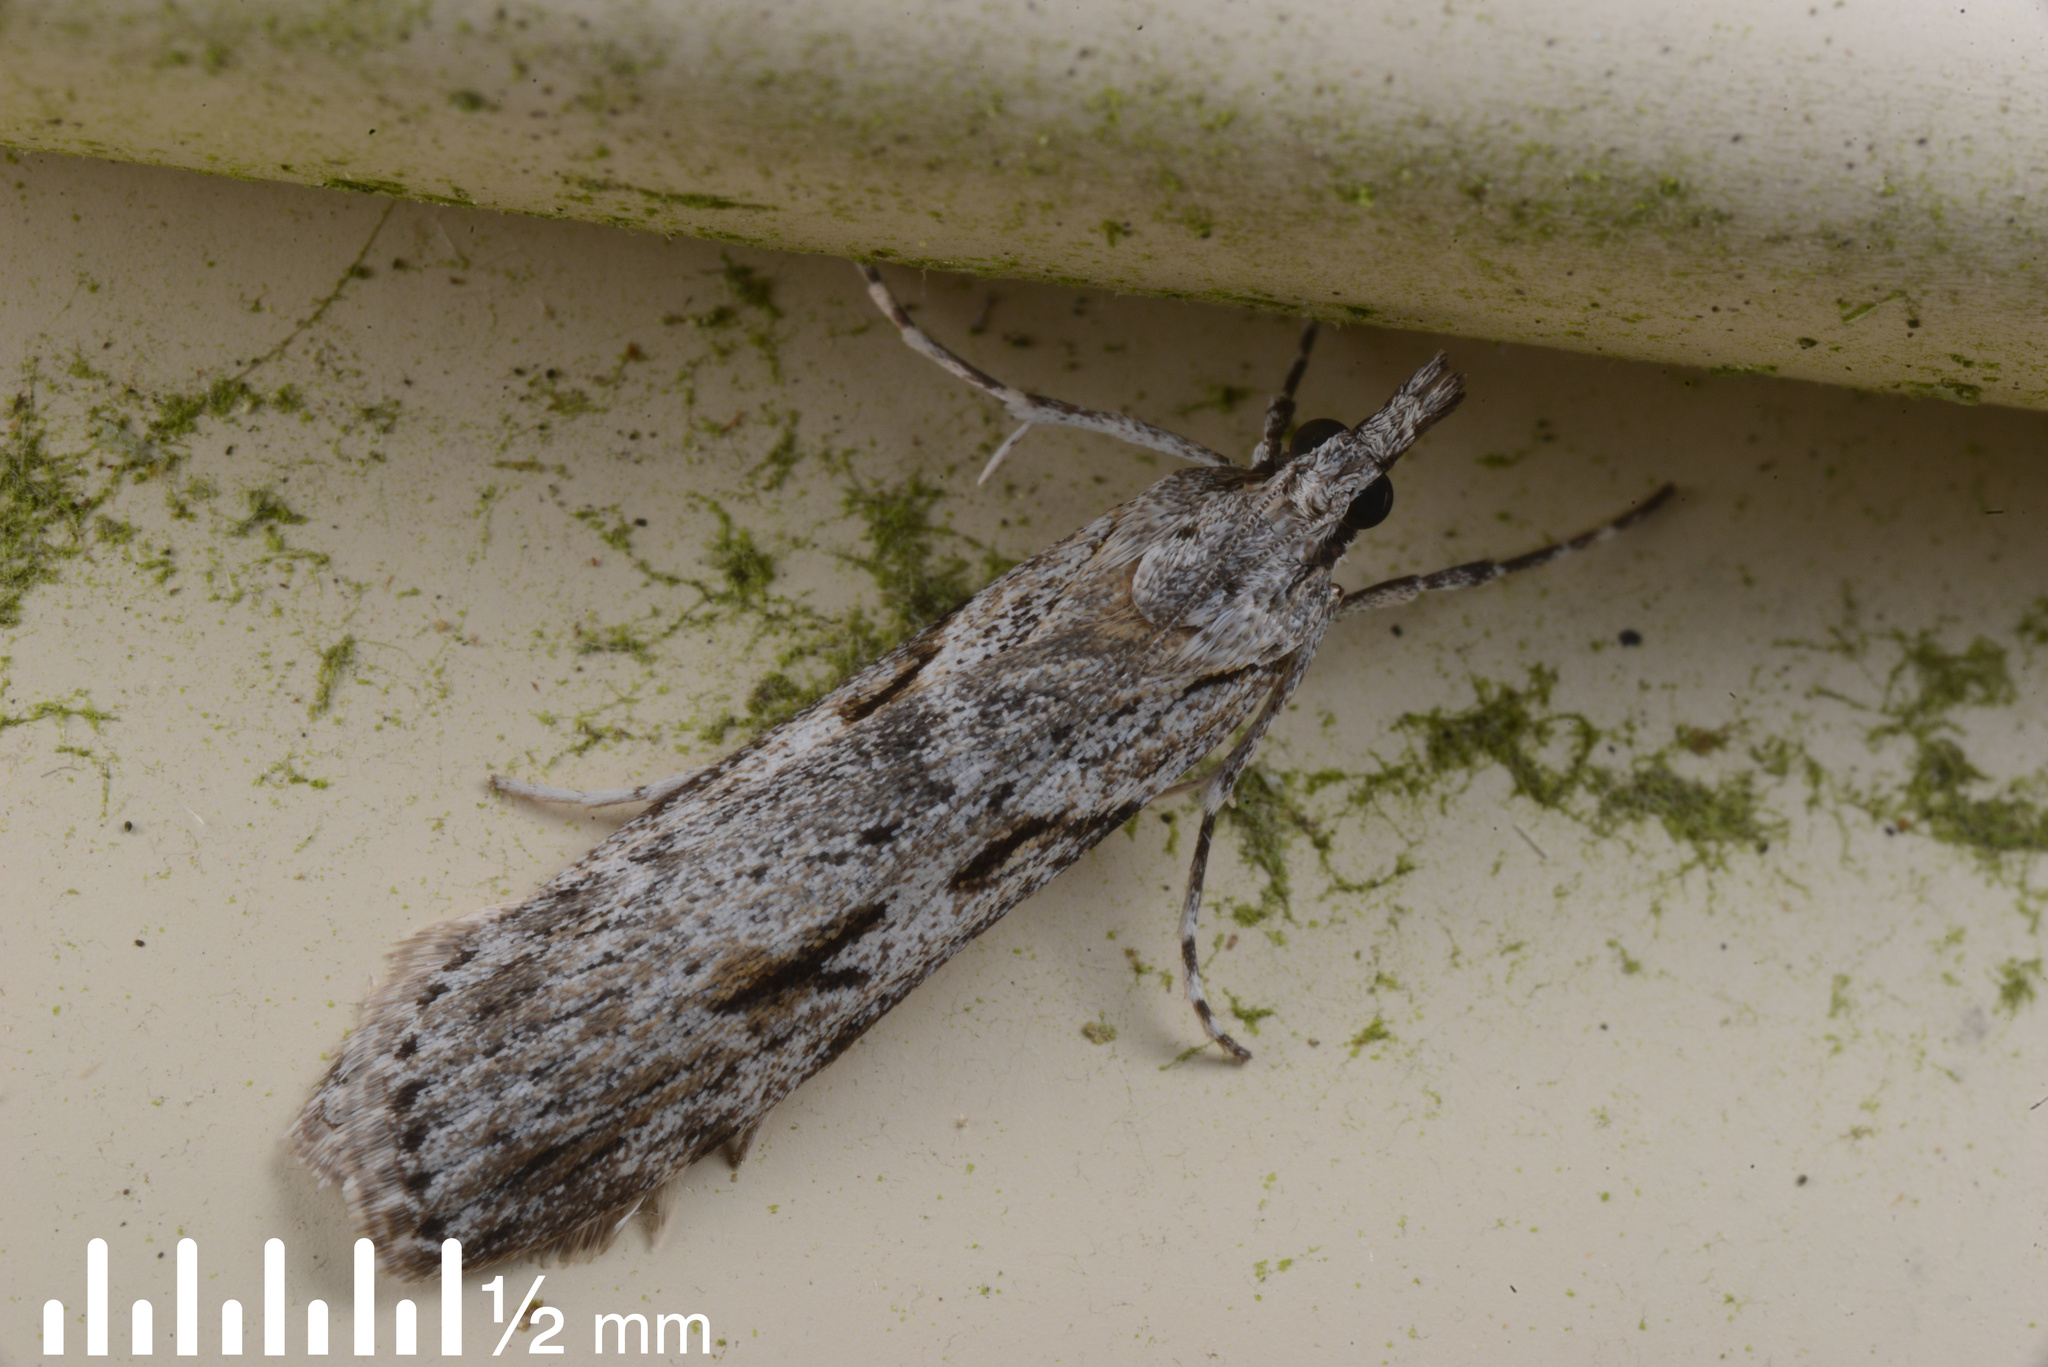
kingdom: Animalia
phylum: Arthropoda
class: Insecta
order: Lepidoptera
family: Crambidae
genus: Scoparia
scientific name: Scoparia halopis
